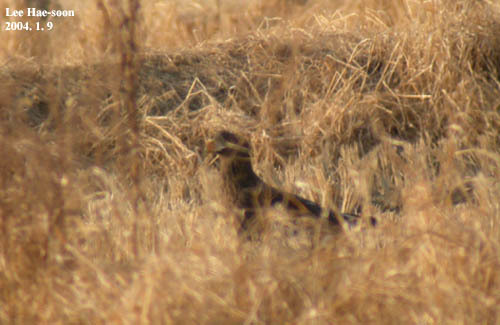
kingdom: Animalia
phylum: Chordata
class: Aves
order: Accipitriformes
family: Accipitridae
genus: Haliaeetus
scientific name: Haliaeetus albicilla
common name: White-tailed eagle
